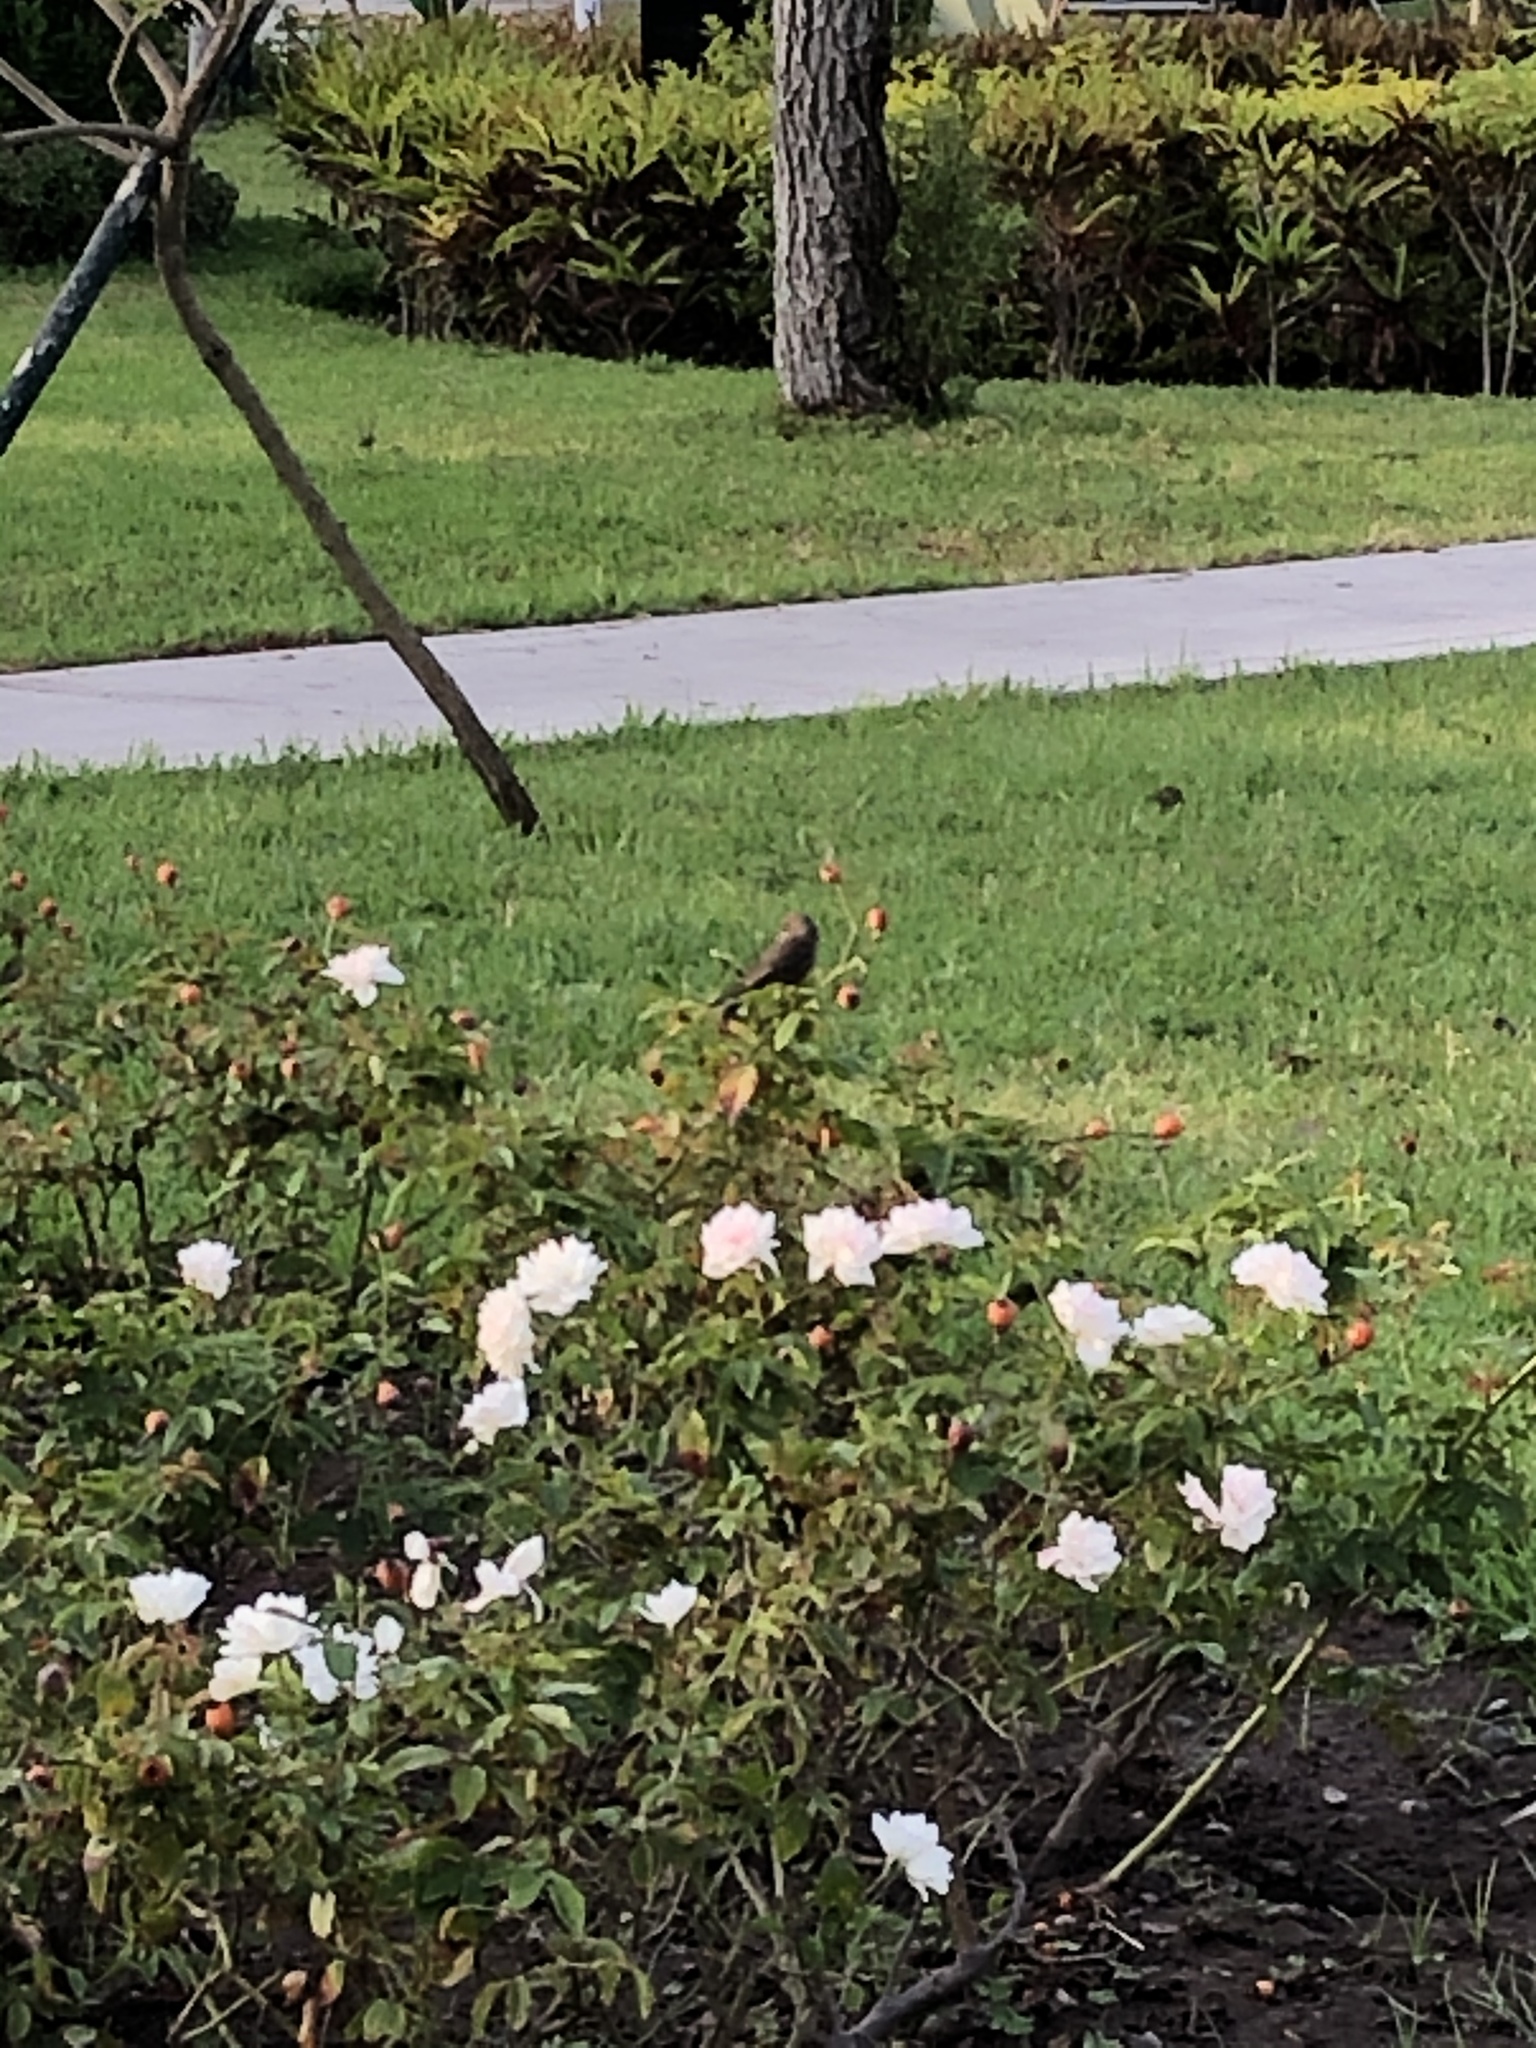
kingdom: Animalia
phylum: Chordata
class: Aves
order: Passeriformes
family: Tyrannidae
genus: Pyrocephalus
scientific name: Pyrocephalus rubinus
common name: Vermilion flycatcher
